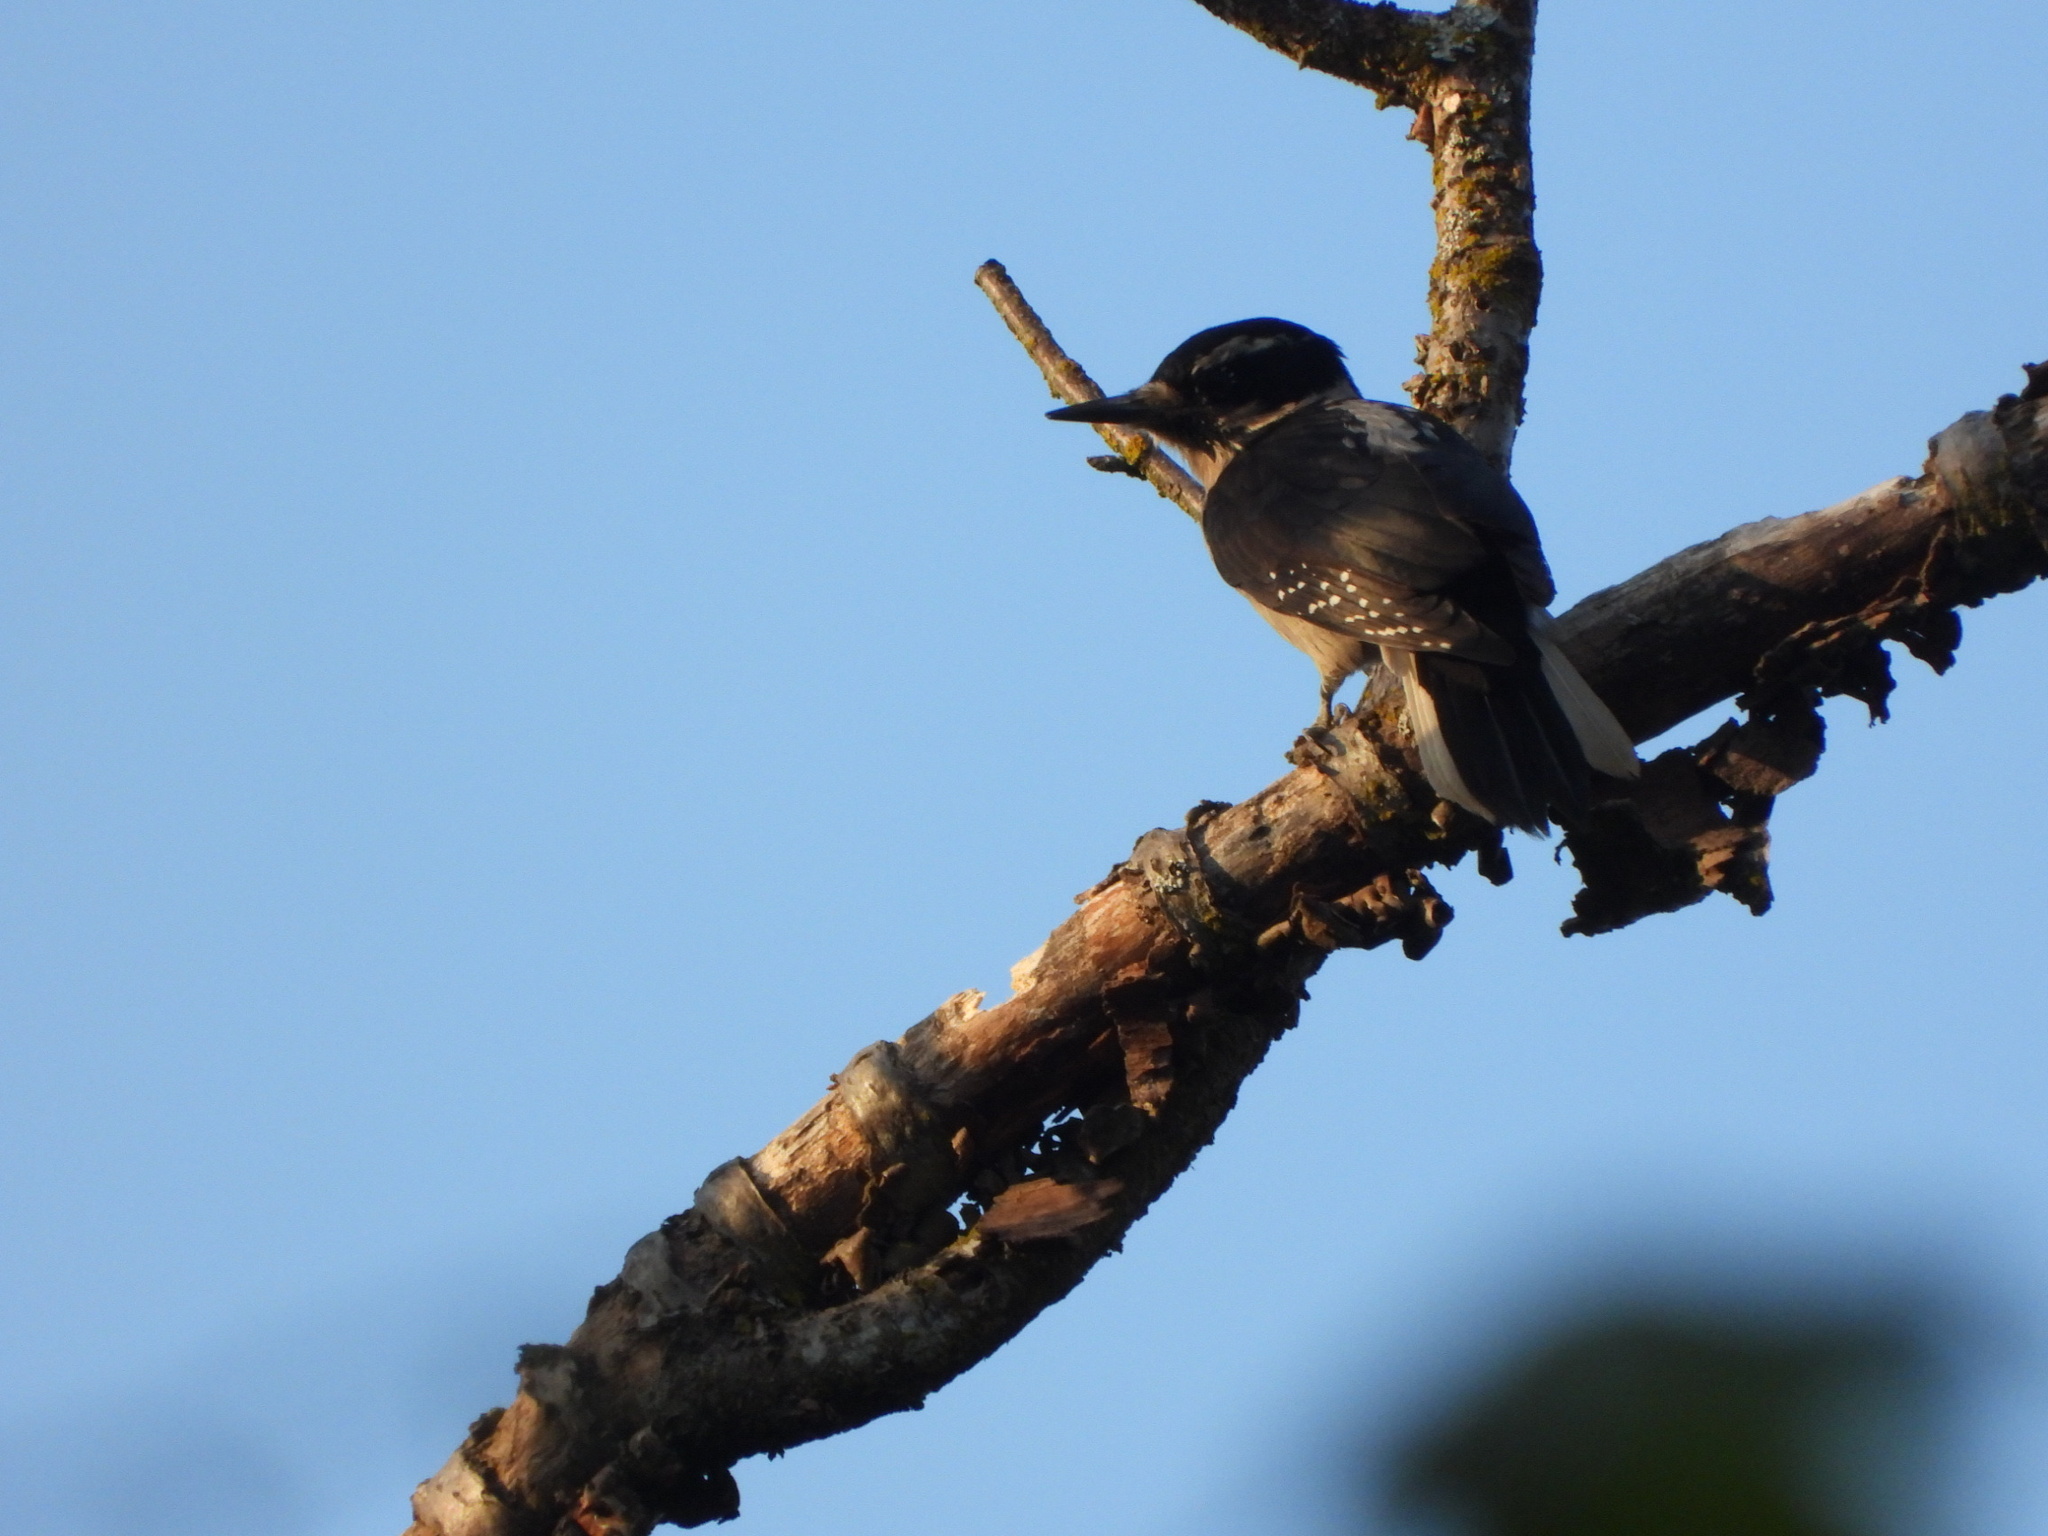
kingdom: Animalia
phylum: Chordata
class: Aves
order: Piciformes
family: Picidae
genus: Leuconotopicus
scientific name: Leuconotopicus villosus
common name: Hairy woodpecker
